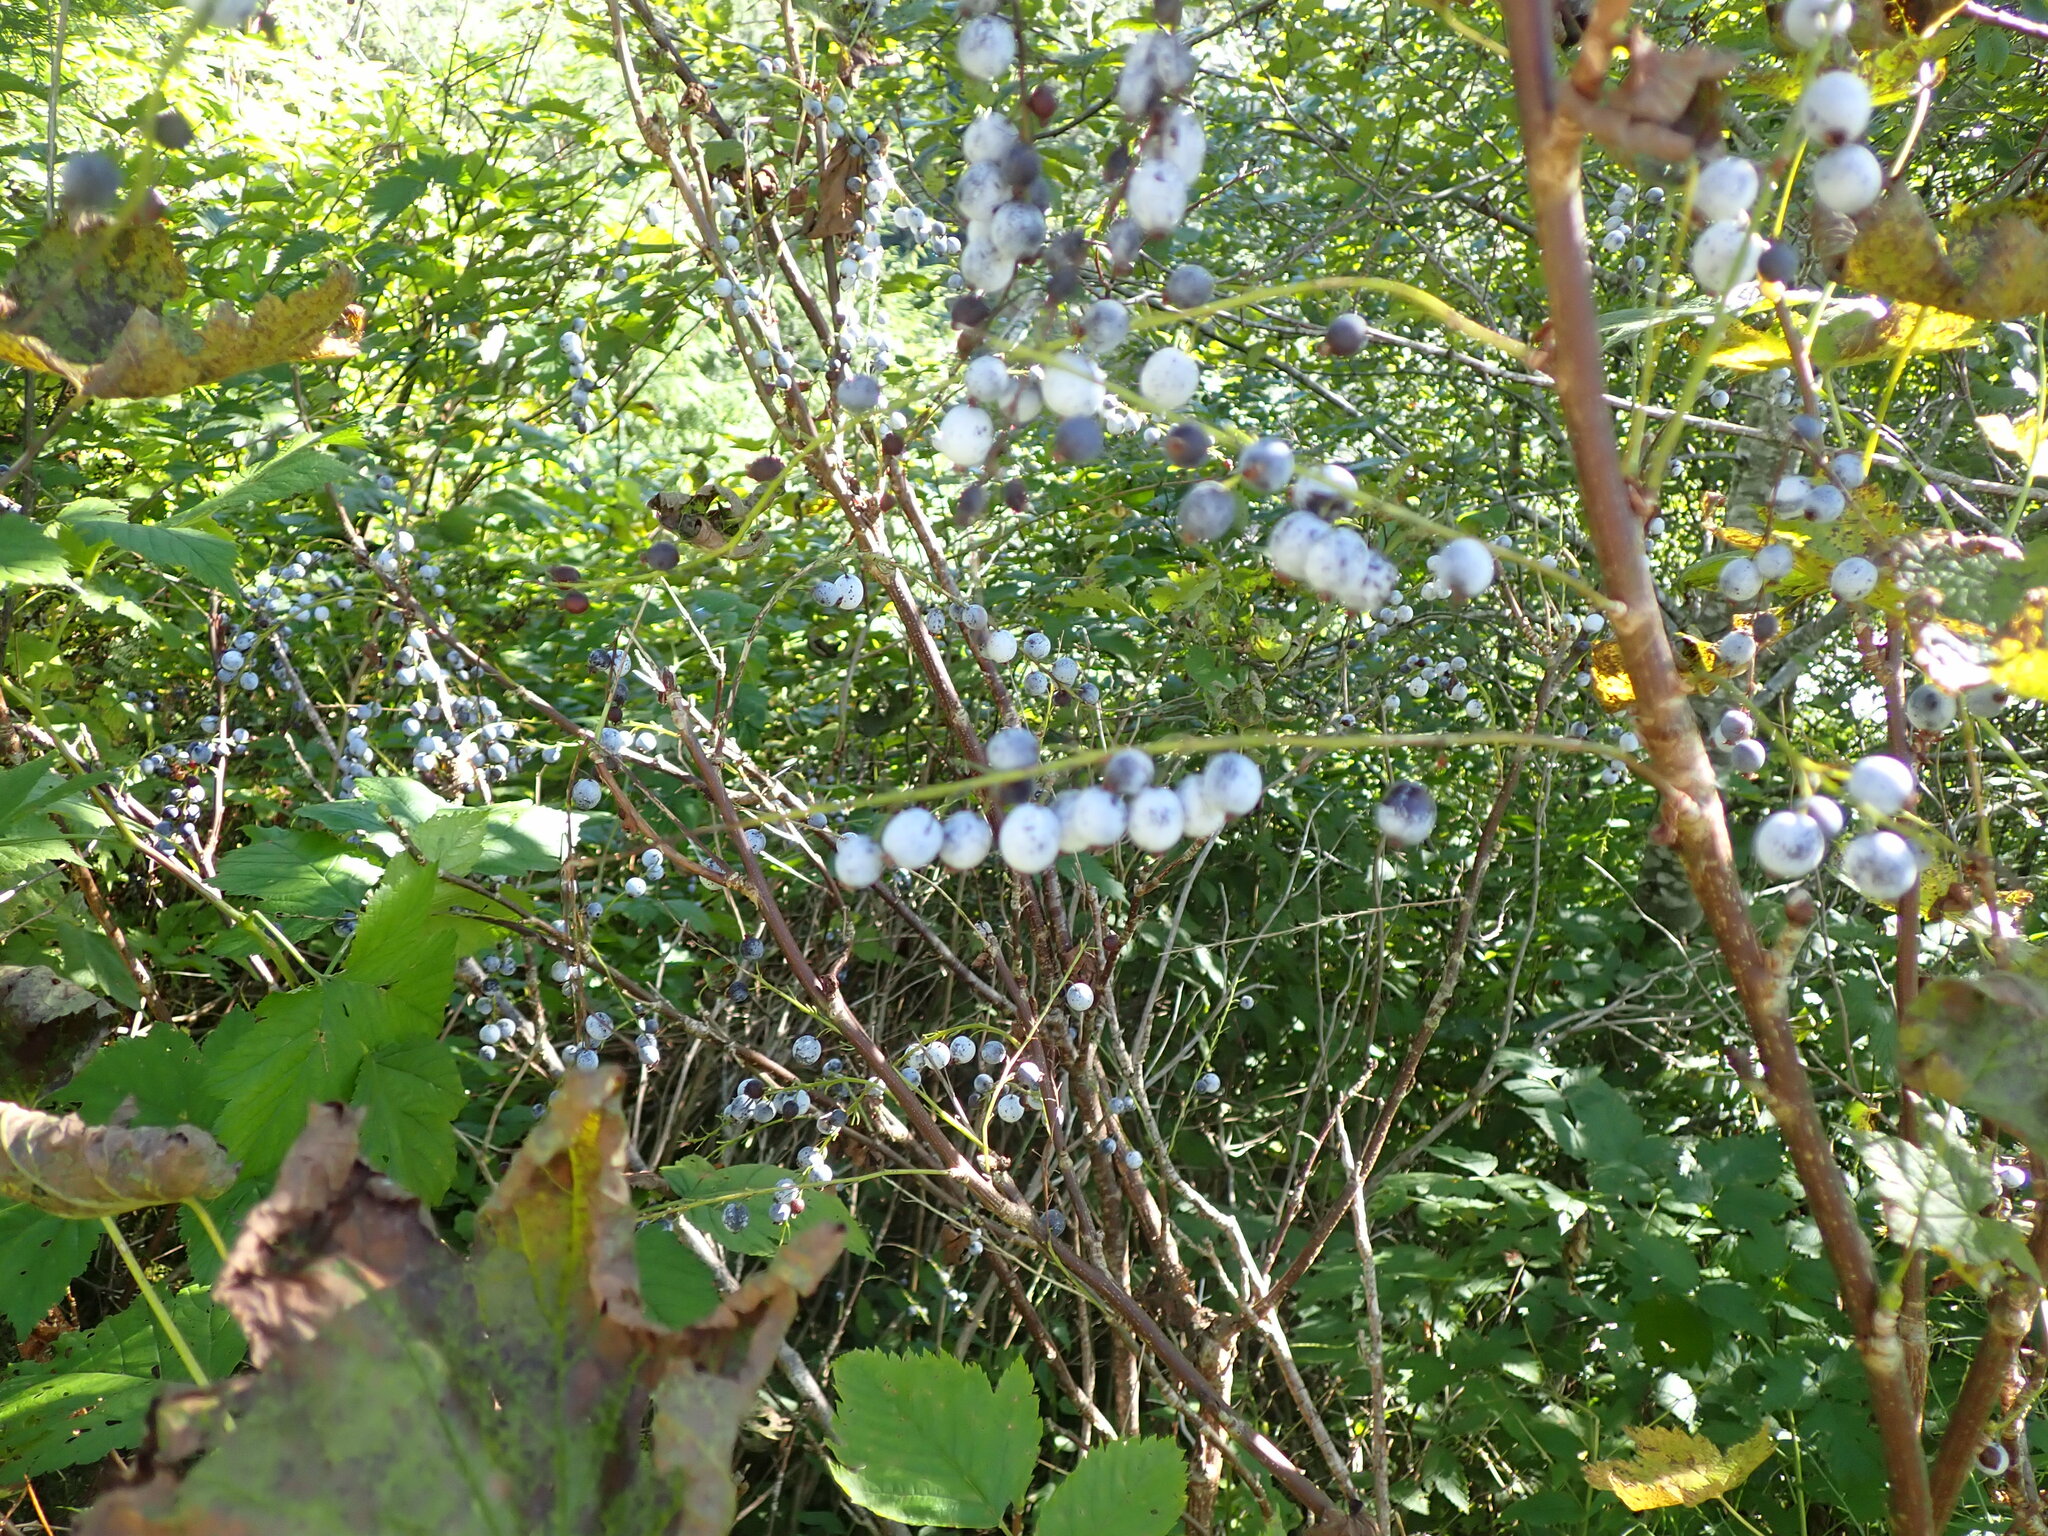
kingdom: Plantae
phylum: Tracheophyta
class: Magnoliopsida
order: Saxifragales
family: Grossulariaceae
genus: Ribes
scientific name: Ribes bracteosum
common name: California black currant
